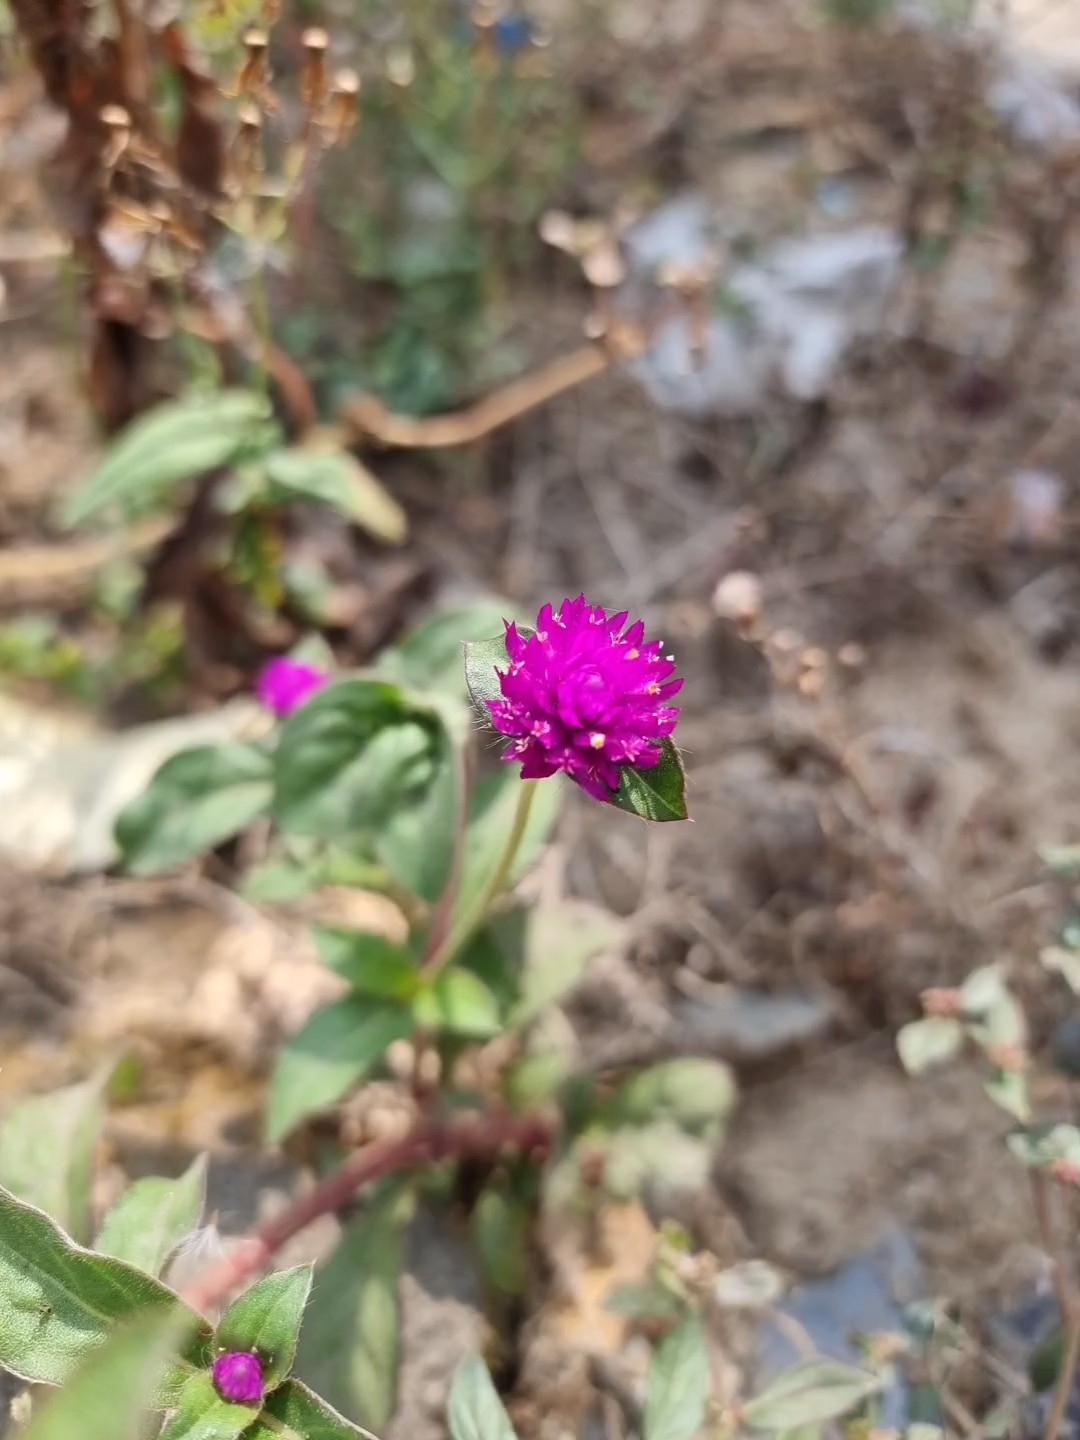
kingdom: Plantae
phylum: Tracheophyta
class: Magnoliopsida
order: Caryophyllales
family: Amaranthaceae
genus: Gomphrena
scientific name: Gomphrena globosa
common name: Common globe amaranth
